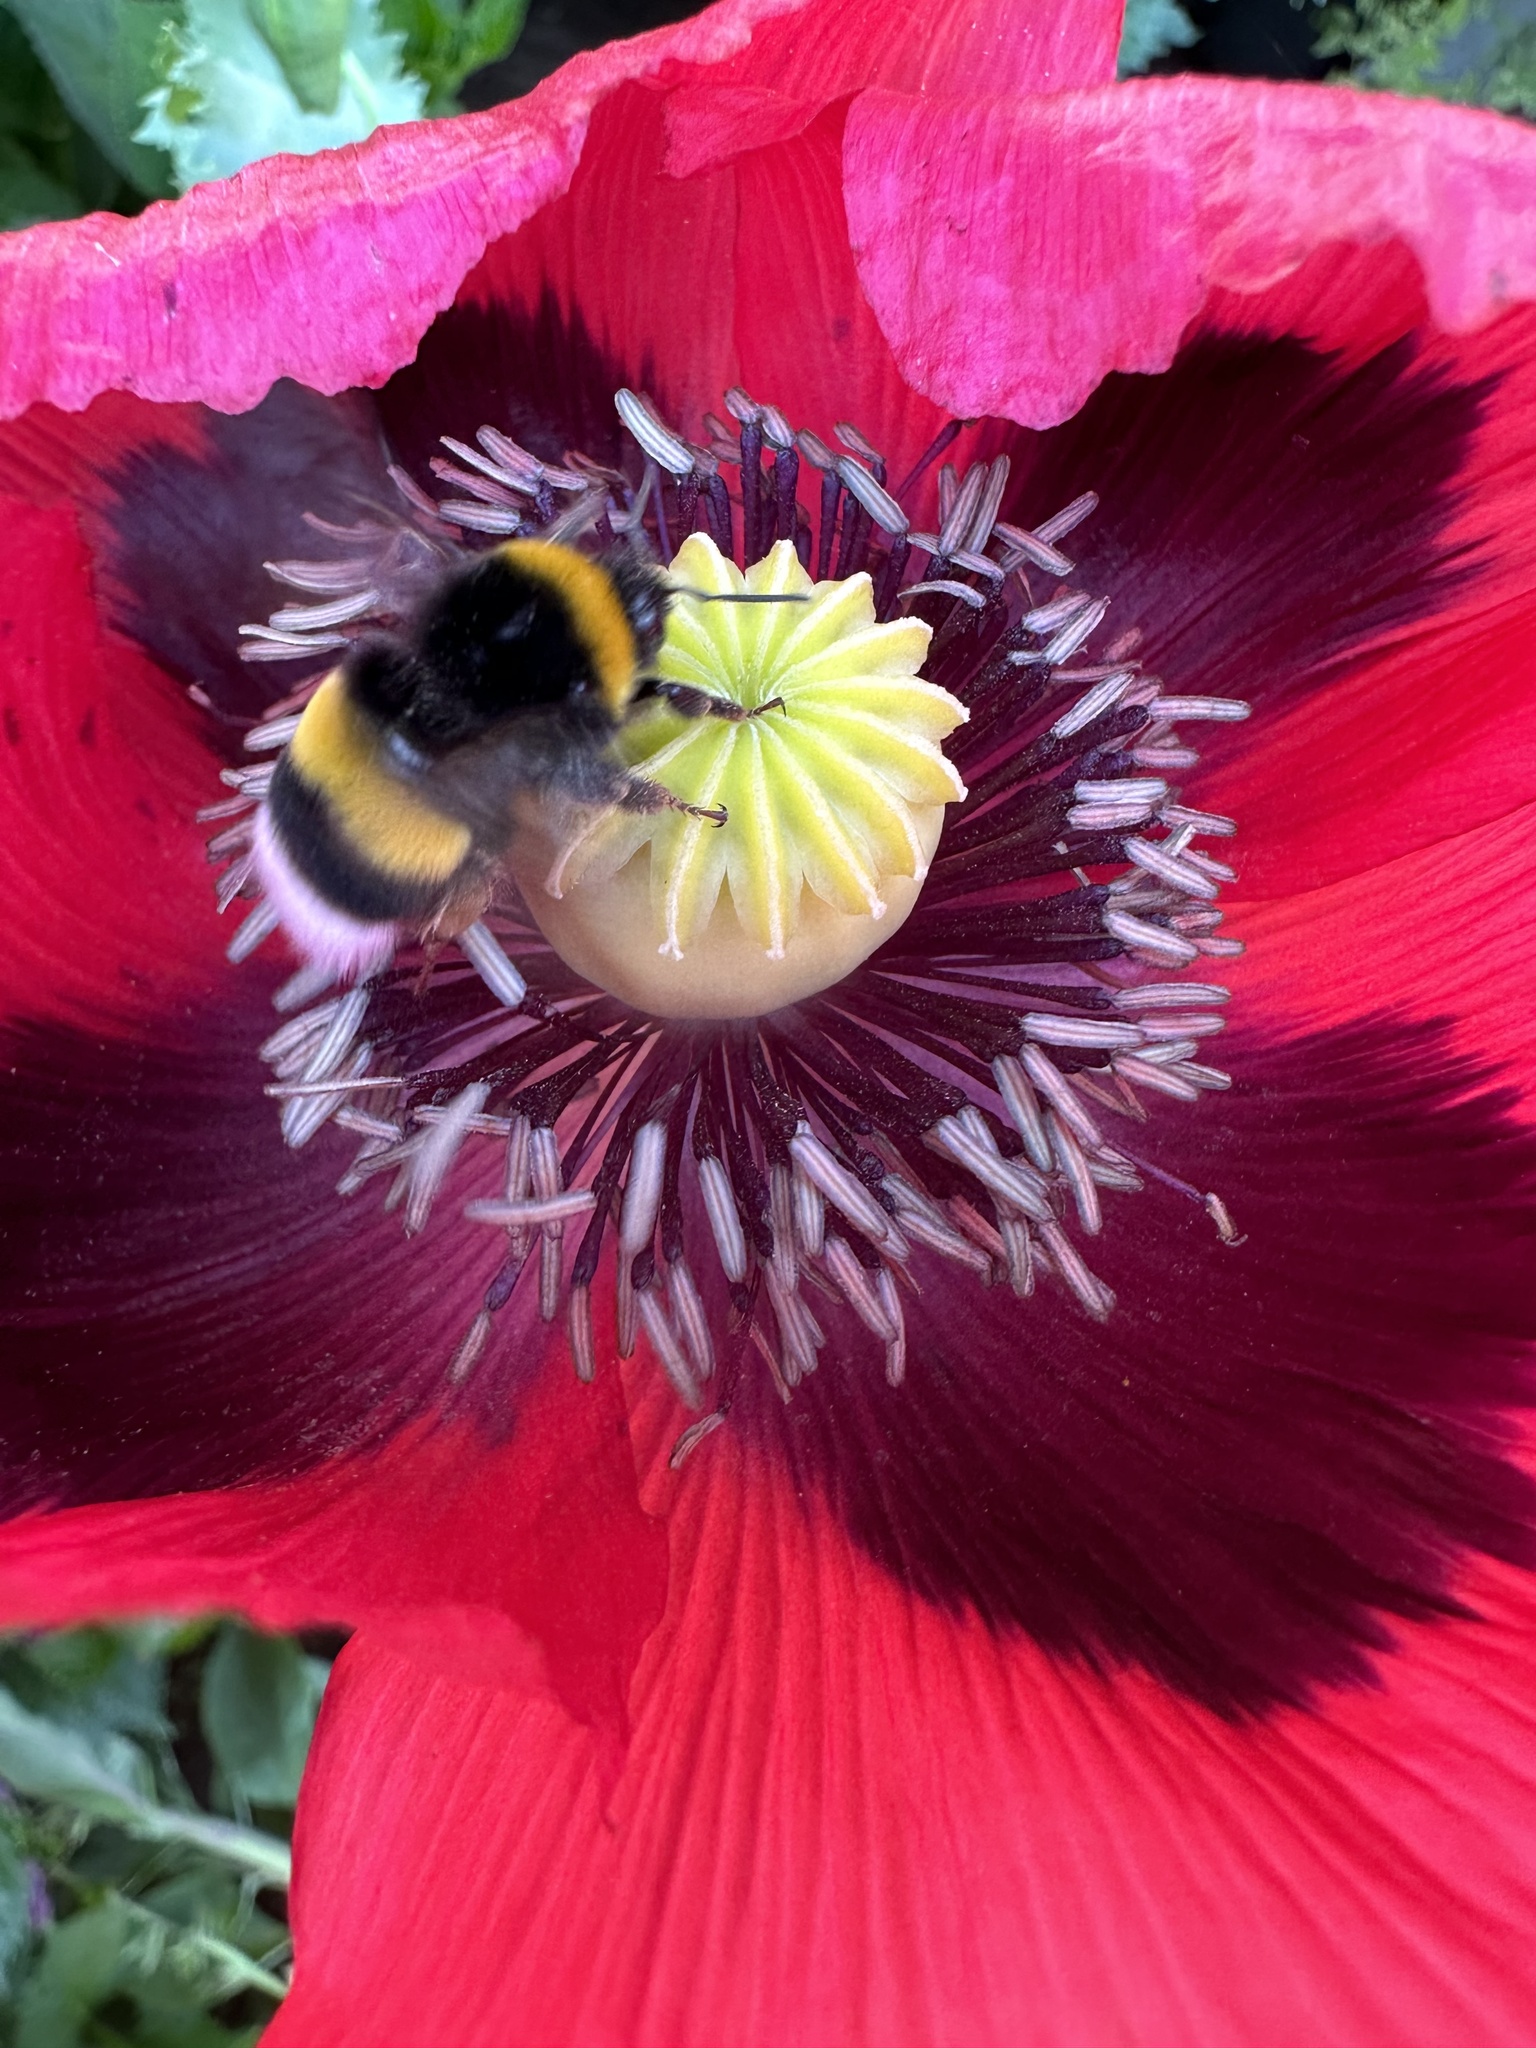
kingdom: Animalia
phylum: Arthropoda
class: Insecta
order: Hymenoptera
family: Apidae
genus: Bombus
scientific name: Bombus terrestris
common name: Buff-tailed bumblebee
